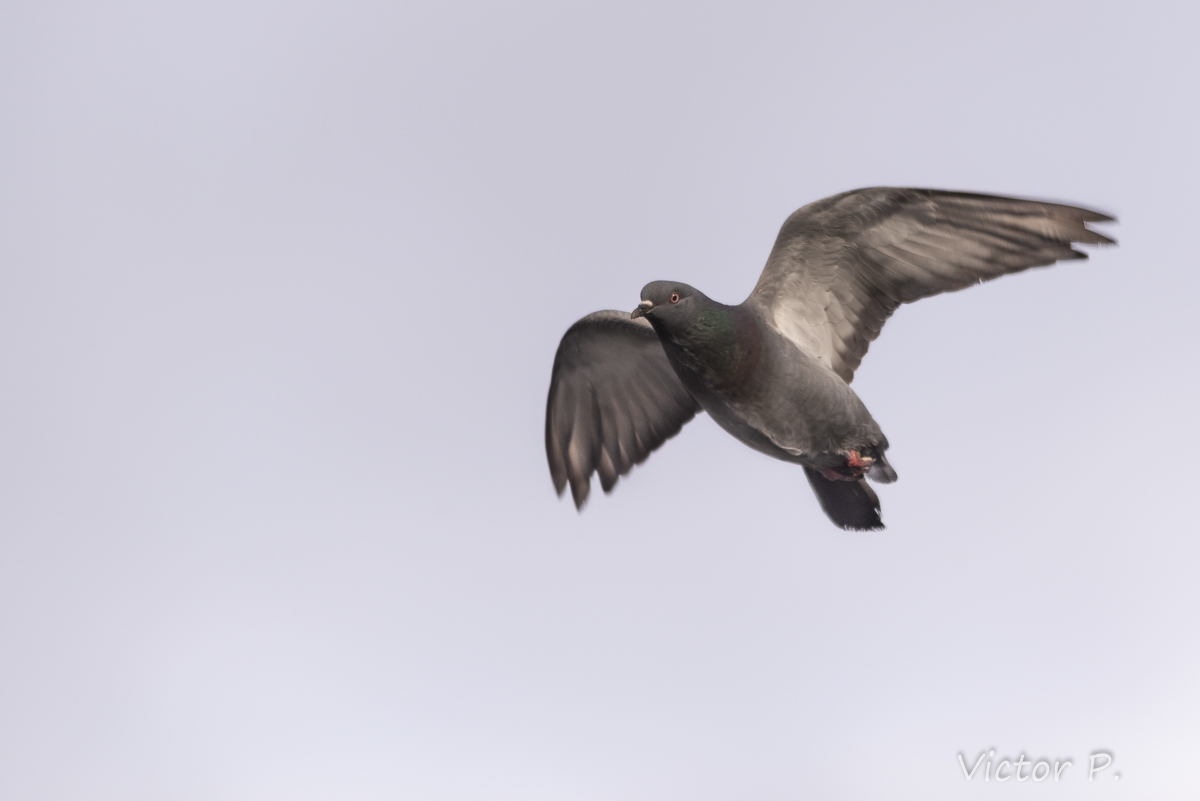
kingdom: Animalia
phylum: Chordata
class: Aves
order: Columbiformes
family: Columbidae
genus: Columba
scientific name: Columba livia
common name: Rock pigeon
